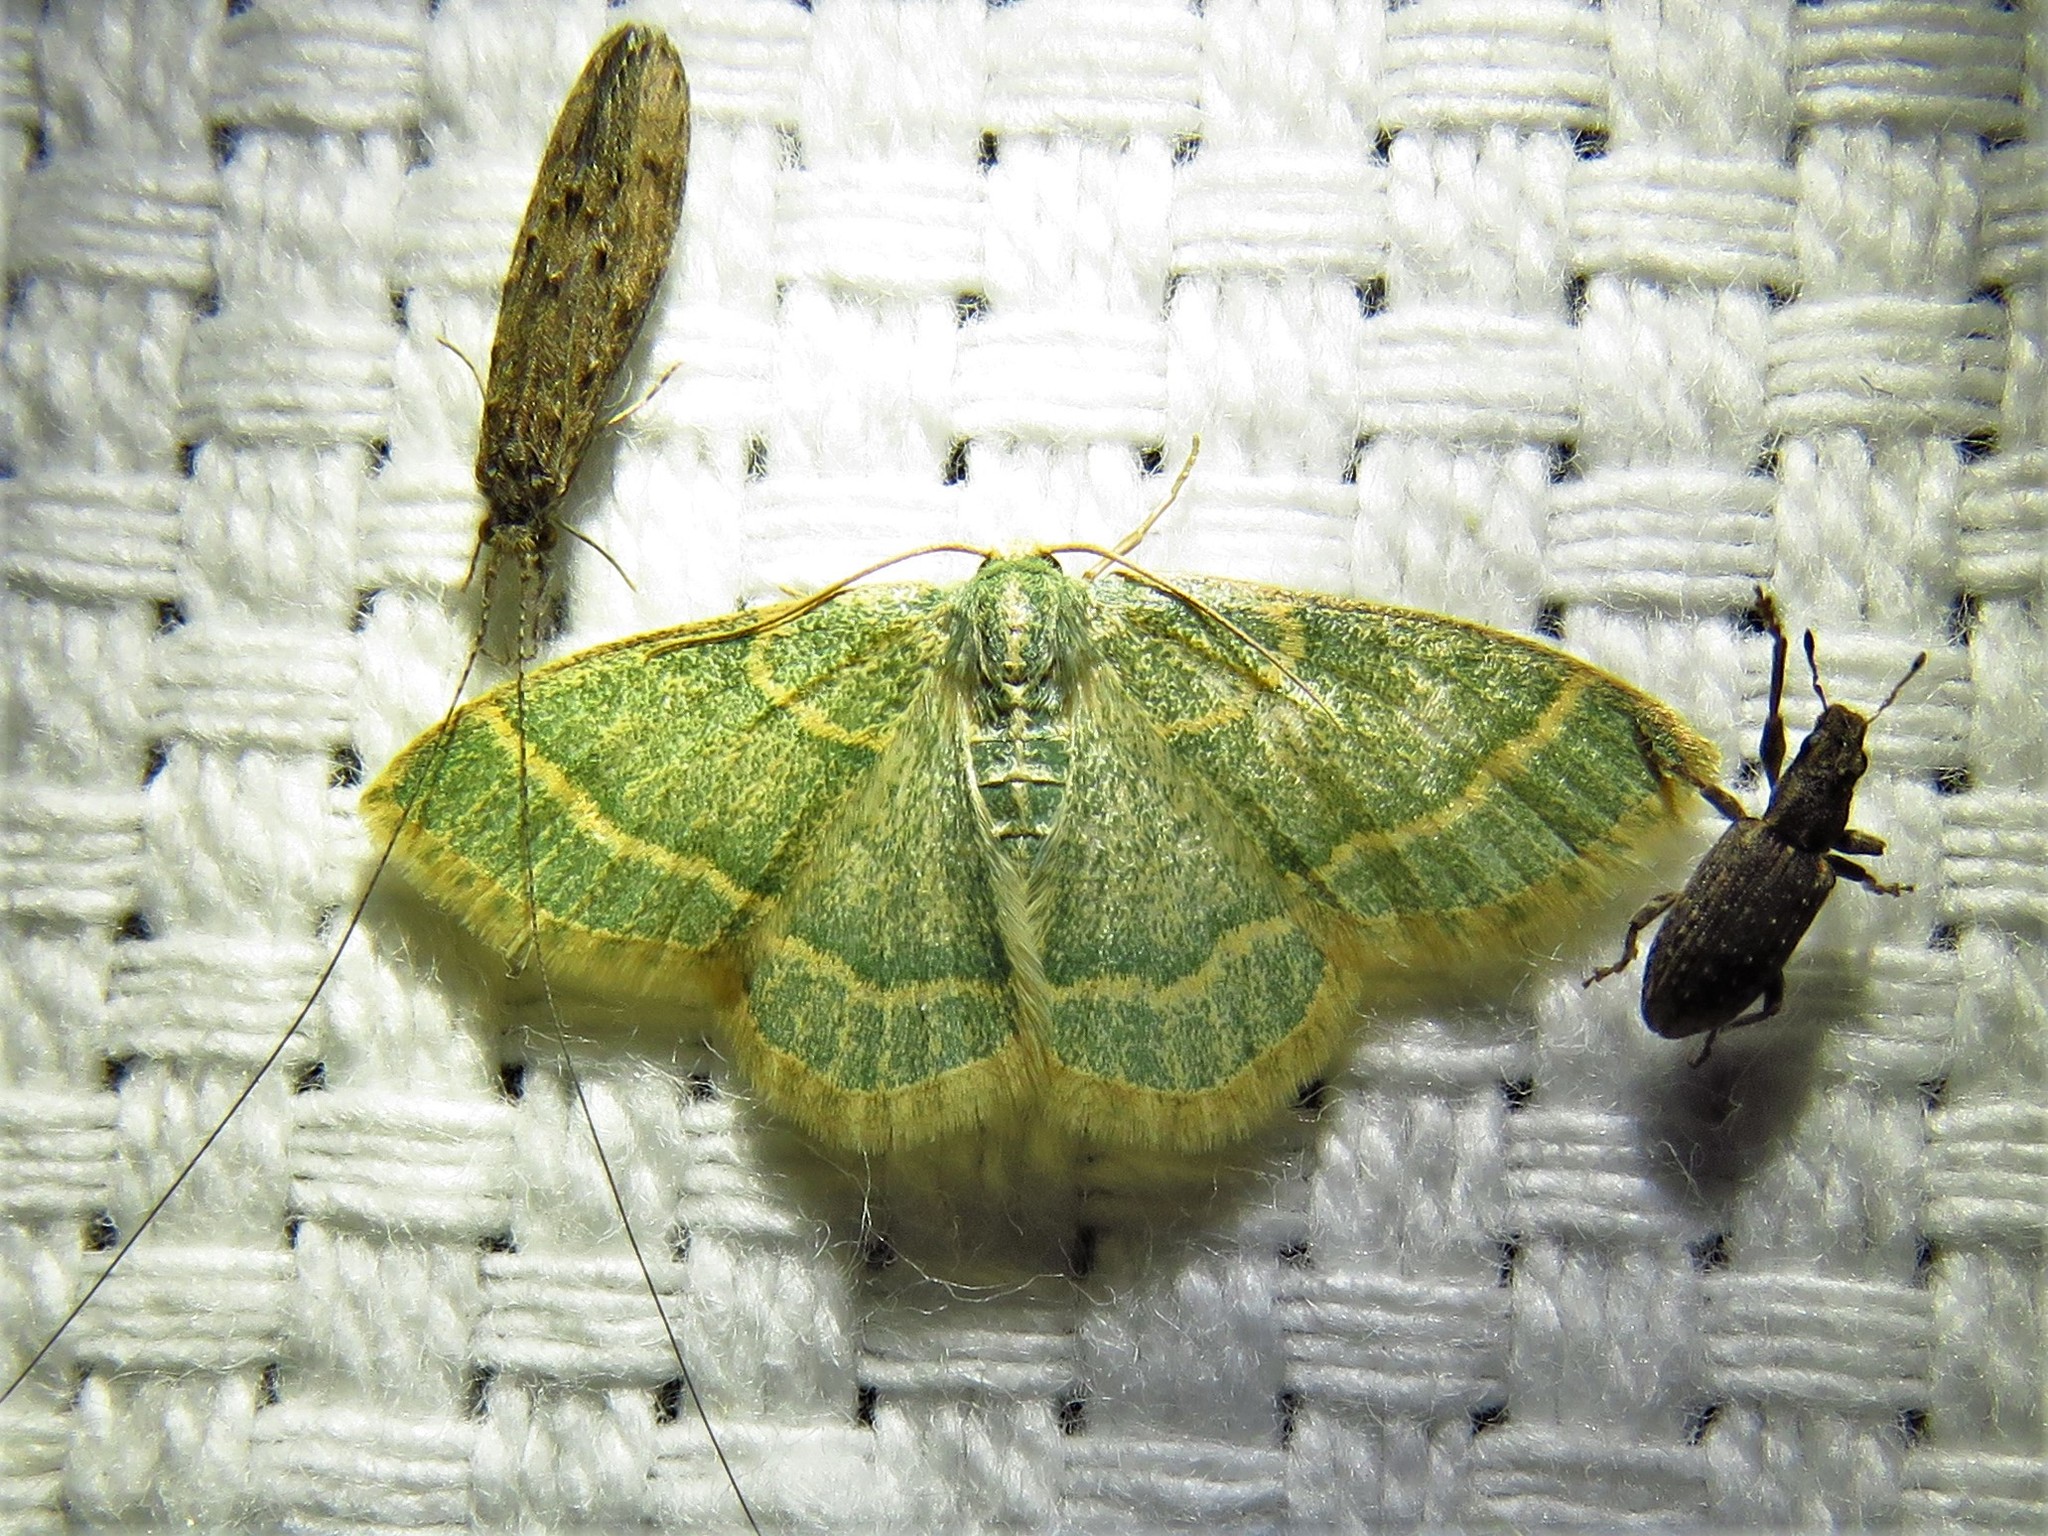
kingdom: Animalia
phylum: Arthropoda
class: Insecta
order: Lepidoptera
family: Geometridae
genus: Chlorochlamys
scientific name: Chlorochlamys chloroleucaria
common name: Blackberry looper
